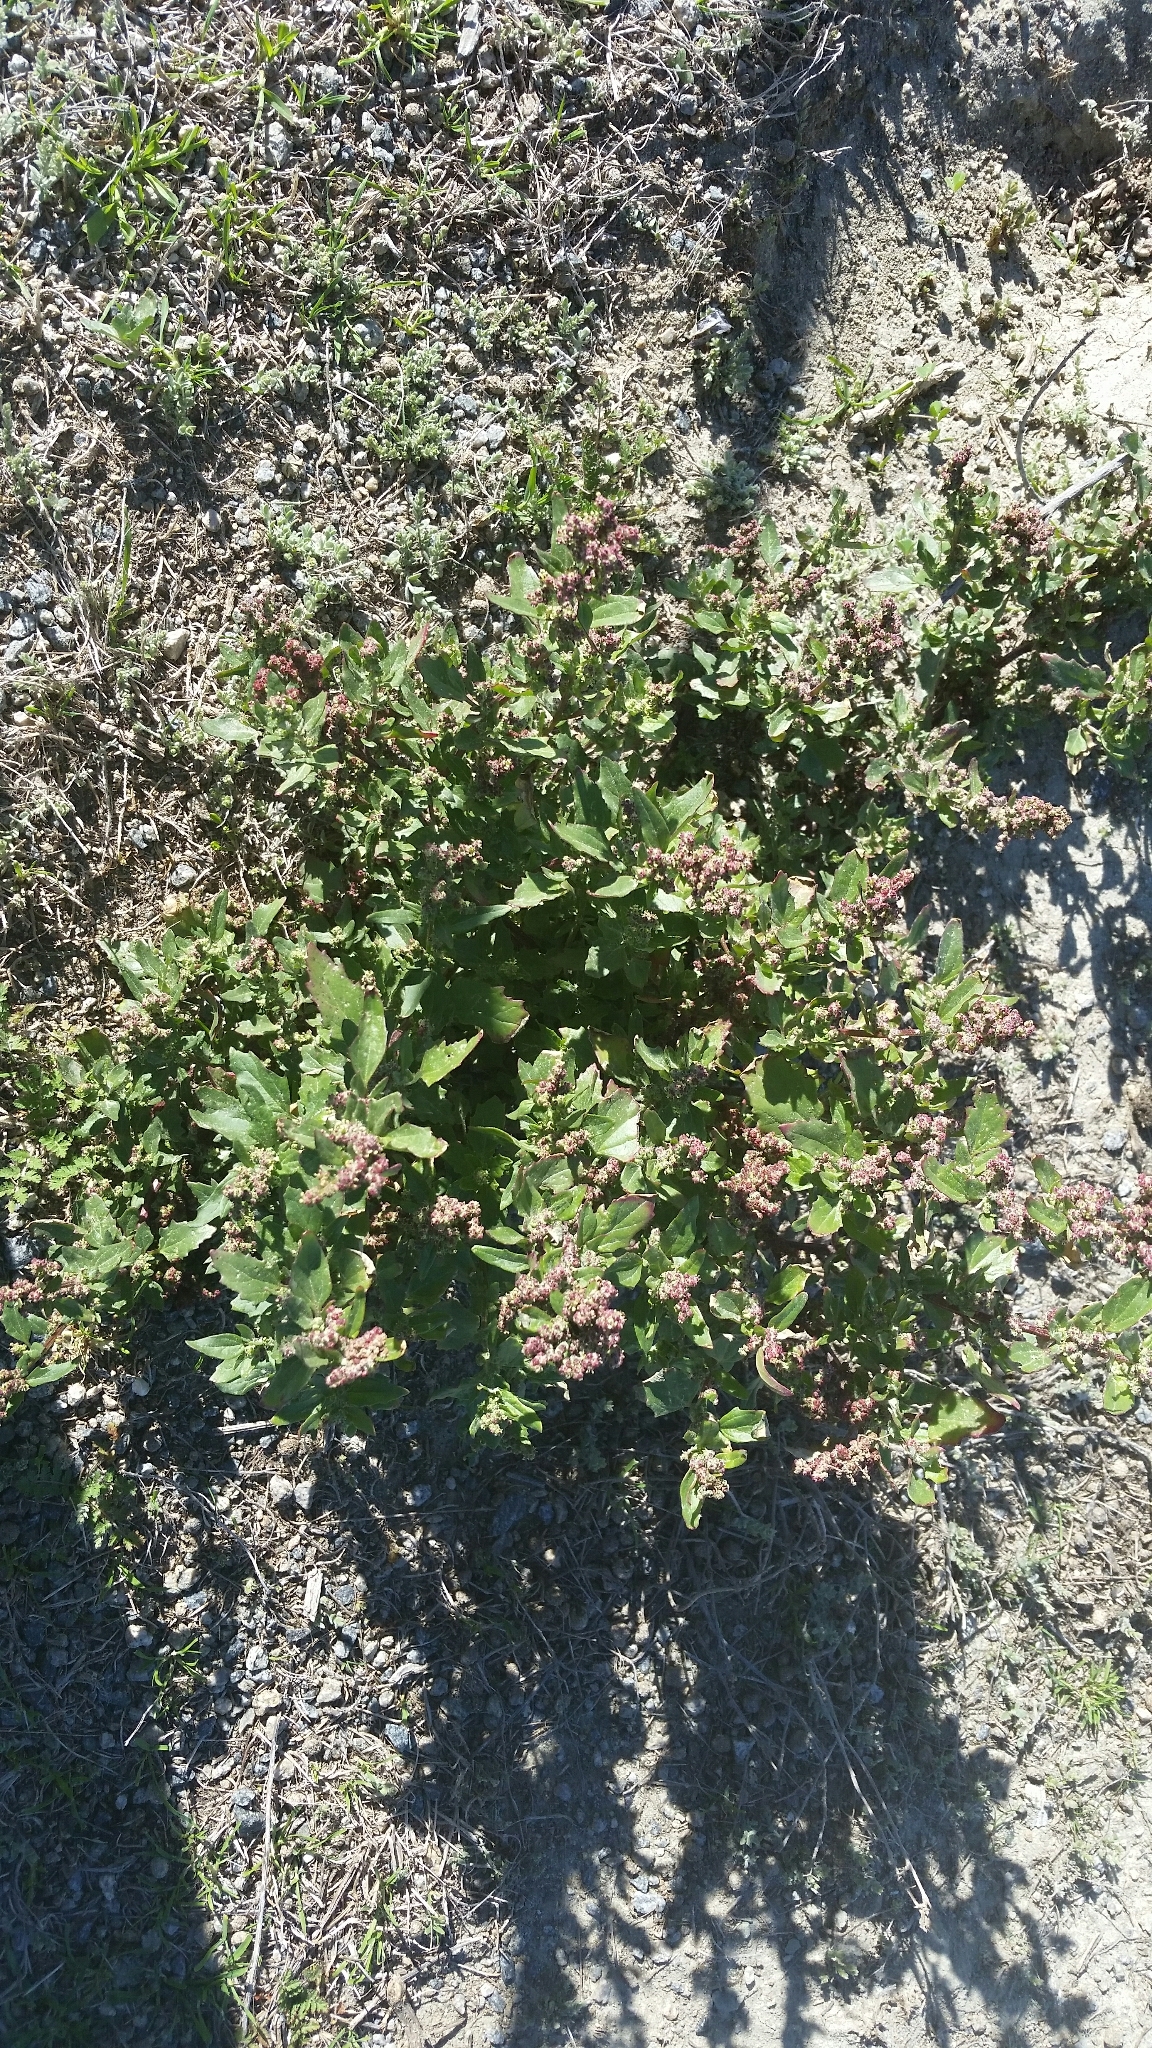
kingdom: Plantae
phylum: Tracheophyta
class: Magnoliopsida
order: Caryophyllales
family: Amaranthaceae
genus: Chenopodiastrum
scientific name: Chenopodiastrum murale
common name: Sowbane
